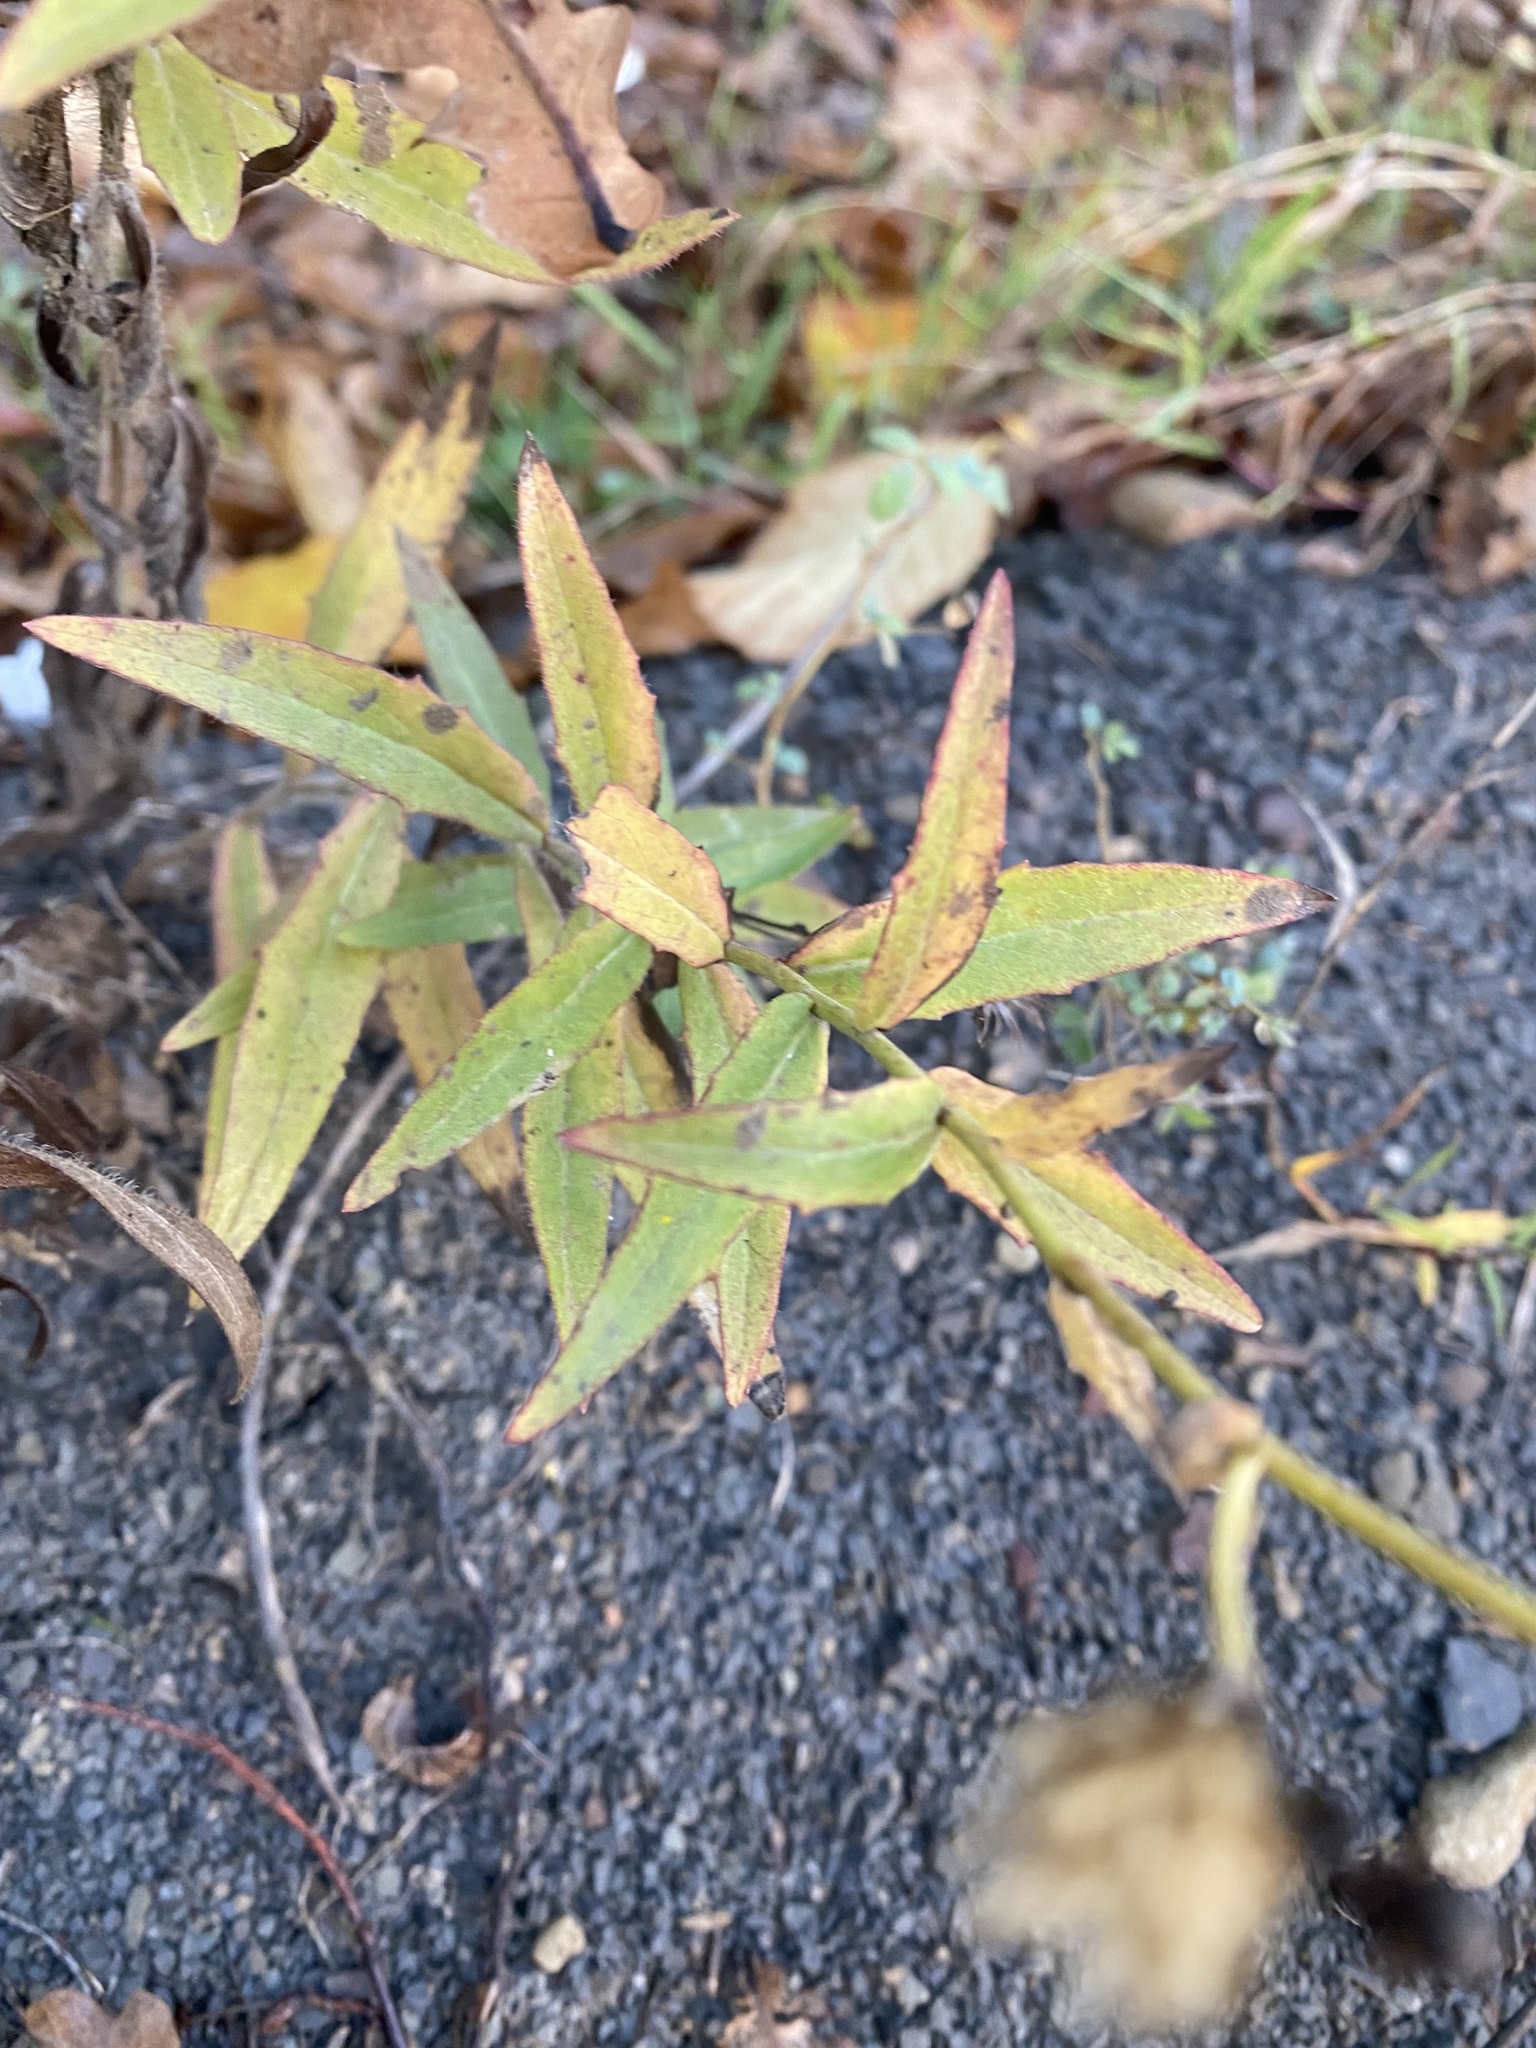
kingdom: Plantae
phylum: Tracheophyta
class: Magnoliopsida
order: Asterales
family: Asteraceae
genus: Hieracium
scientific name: Hieracium umbellatum
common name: Northern hawkweed
